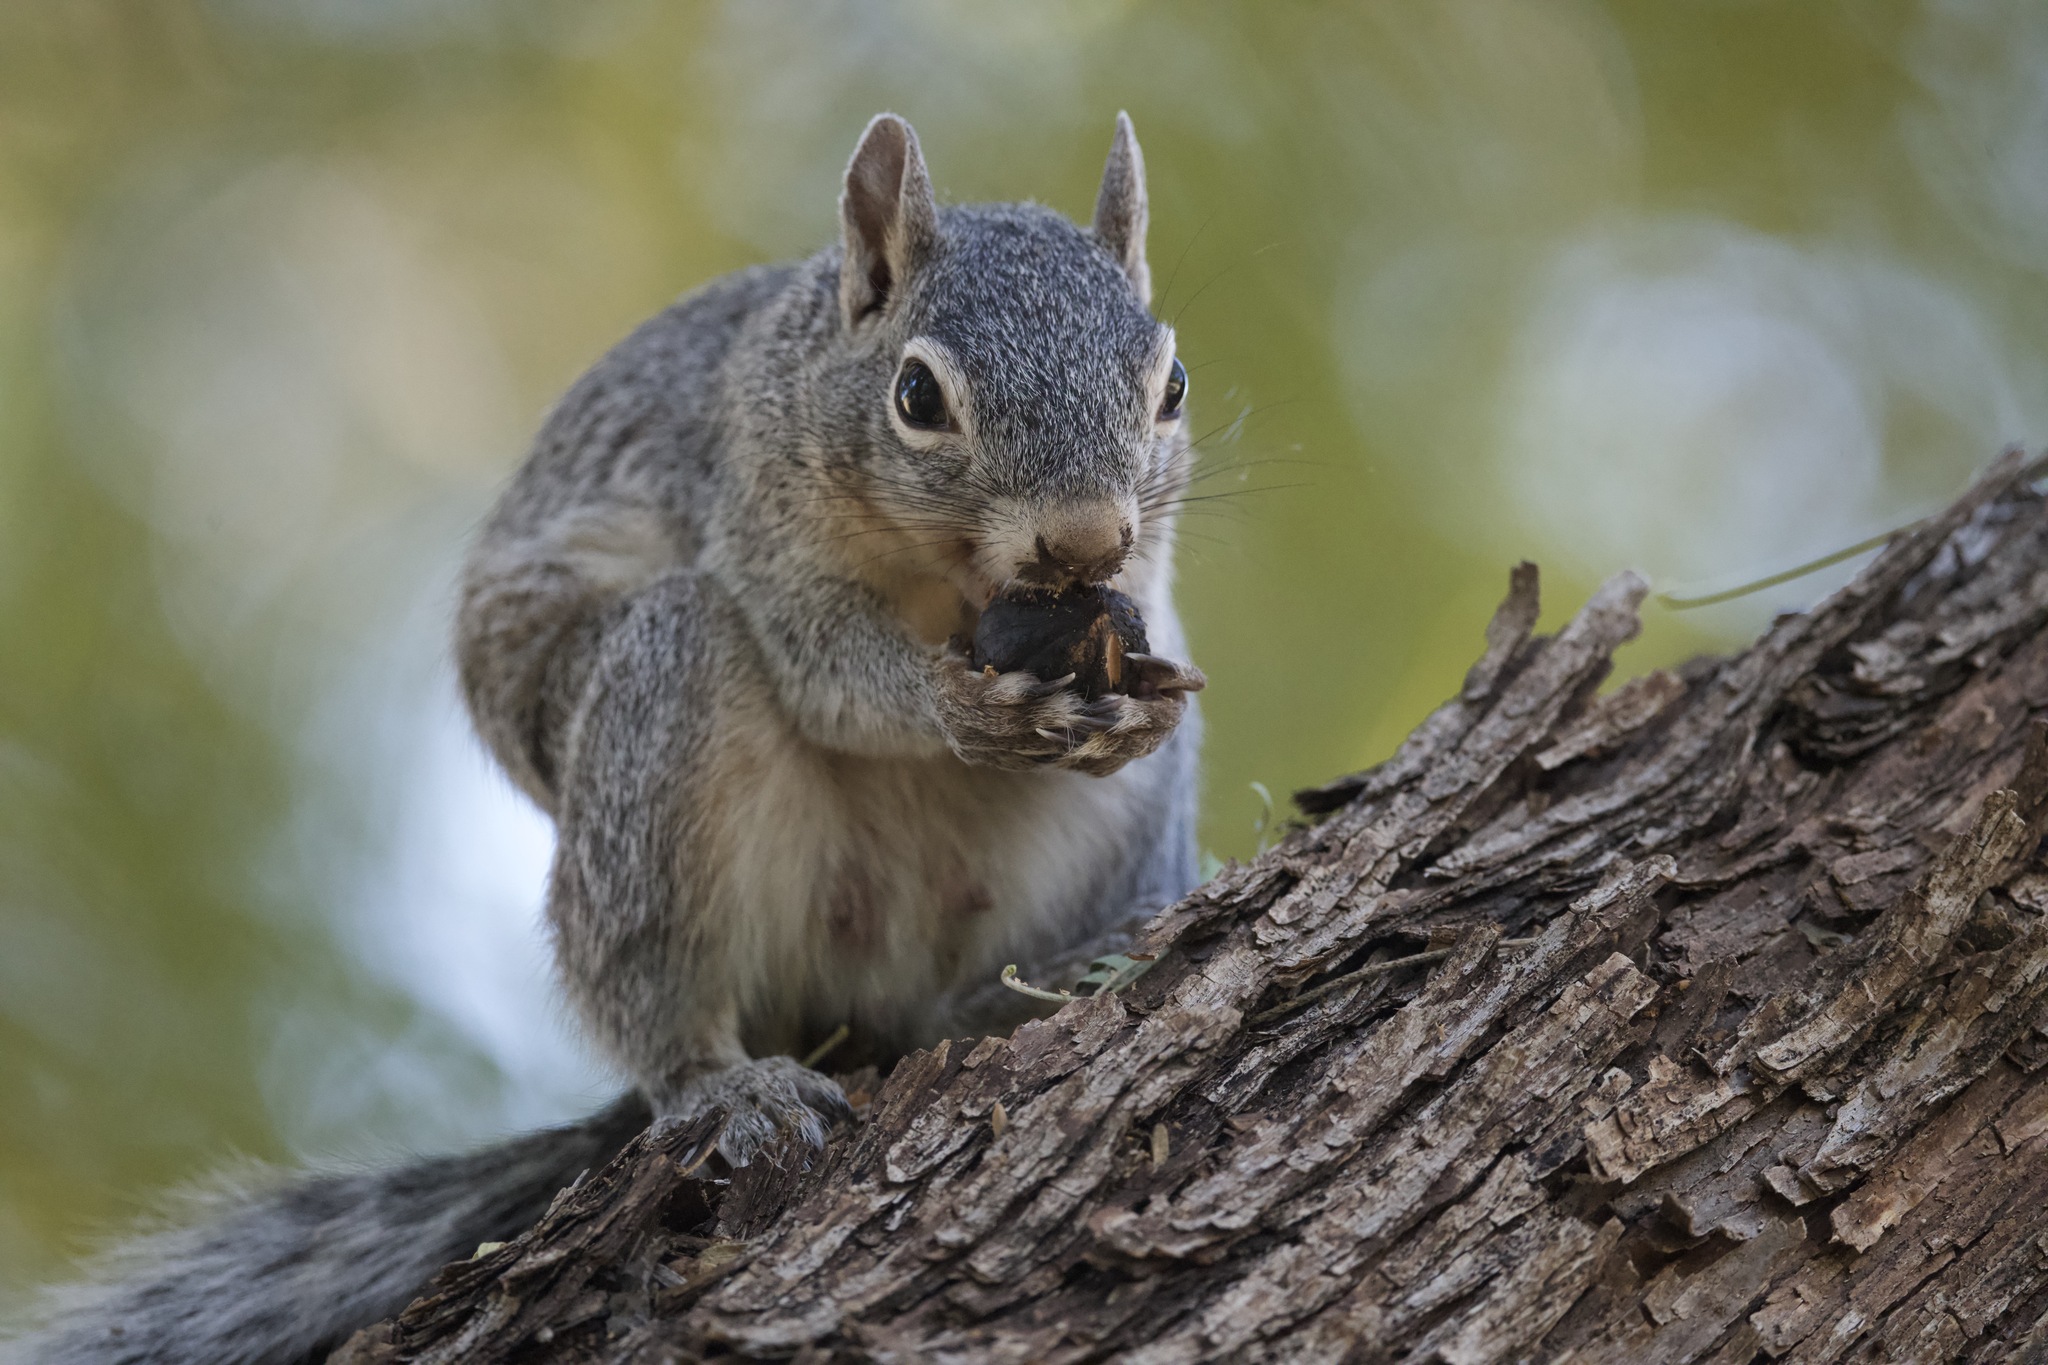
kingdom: Animalia
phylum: Chordata
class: Mammalia
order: Rodentia
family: Sciuridae
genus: Sciurus
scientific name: Sciurus arizonensis
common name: Arizona gray squirrel
